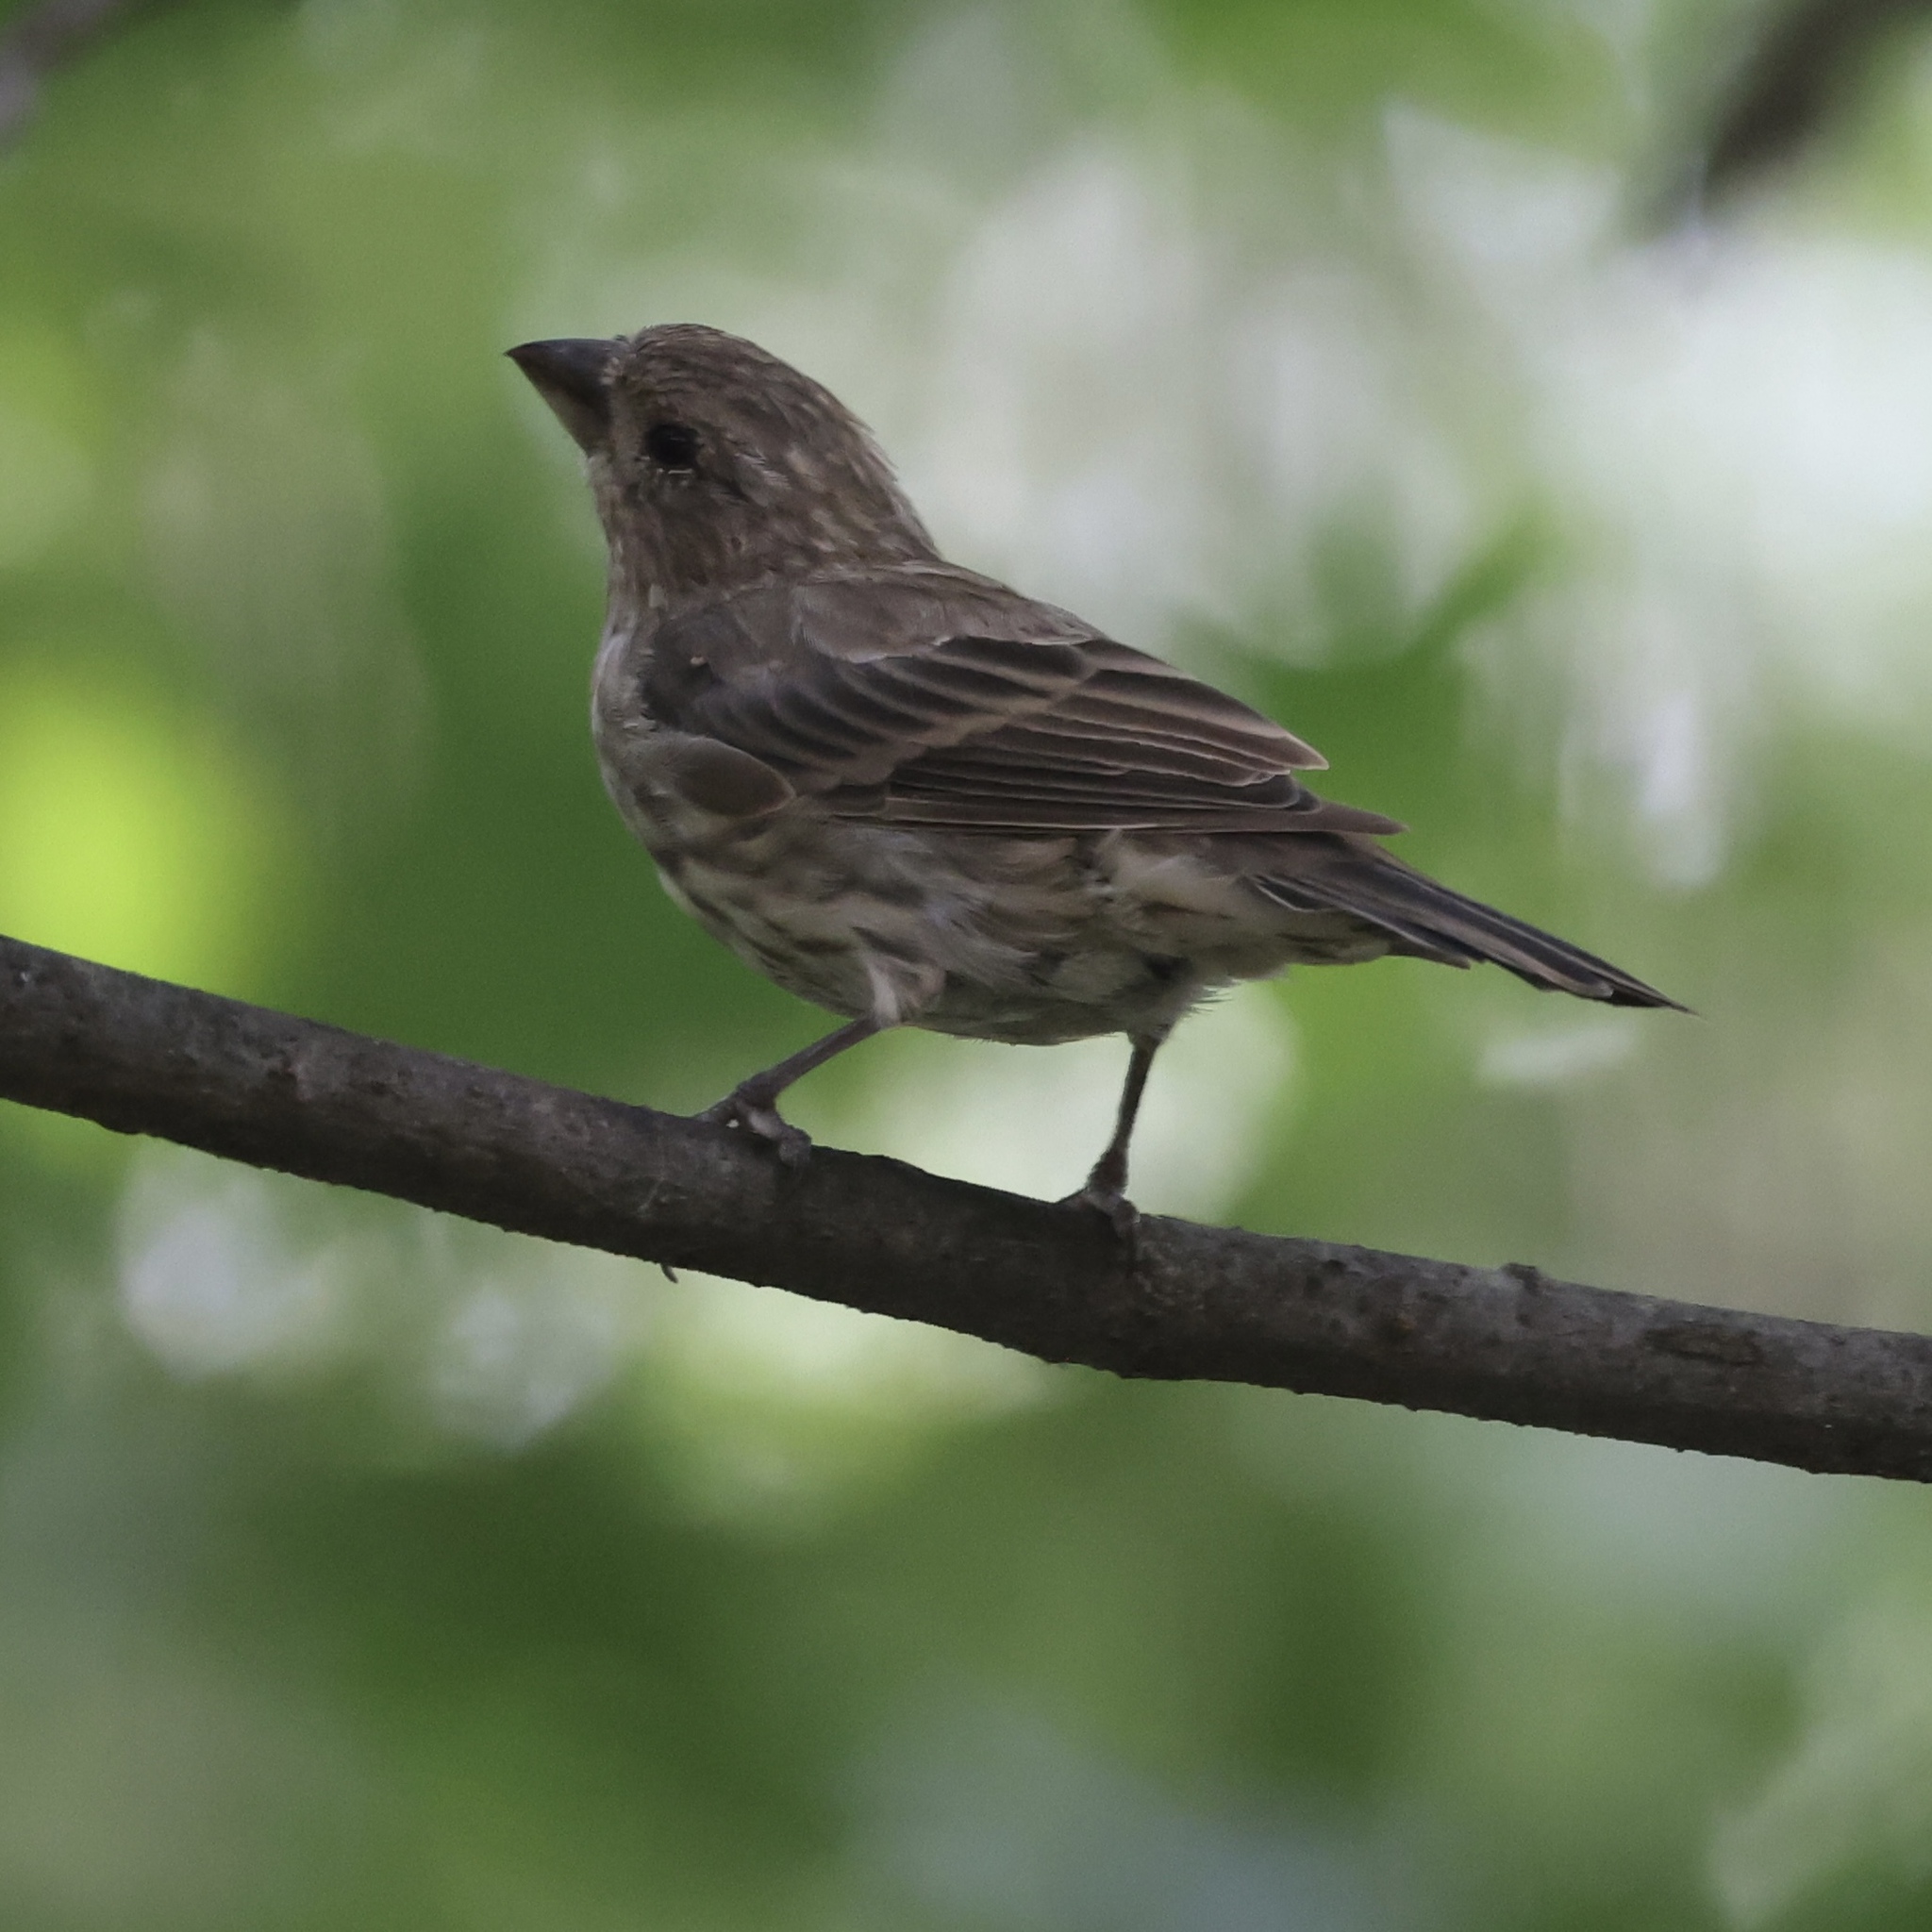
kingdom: Animalia
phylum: Chordata
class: Aves
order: Passeriformes
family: Fringillidae
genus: Haemorhous
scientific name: Haemorhous mexicanus
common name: House finch
